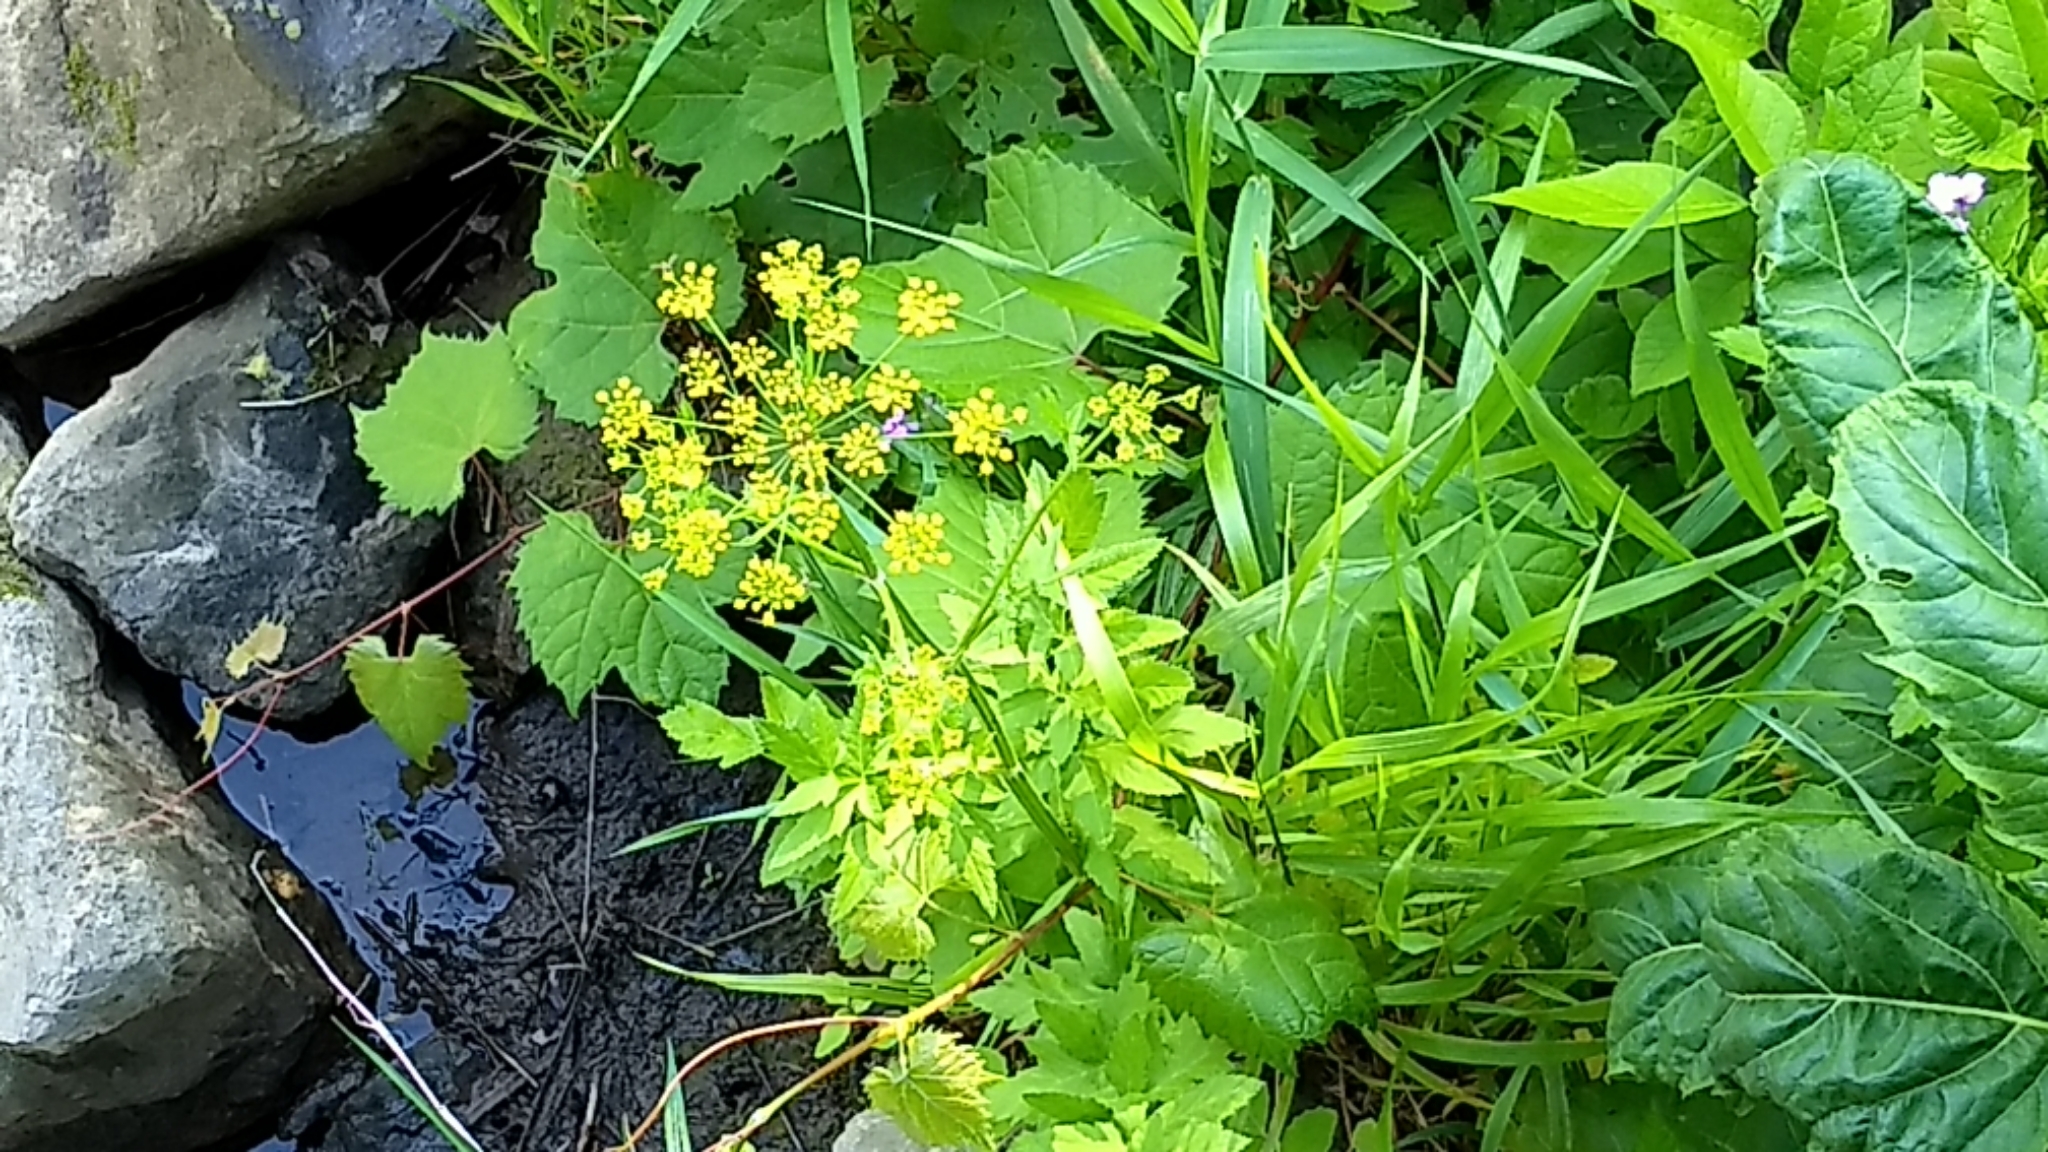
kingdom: Plantae
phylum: Tracheophyta
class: Magnoliopsida
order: Apiales
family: Apiaceae
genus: Pastinaca
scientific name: Pastinaca sativa
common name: Wild parsnip
